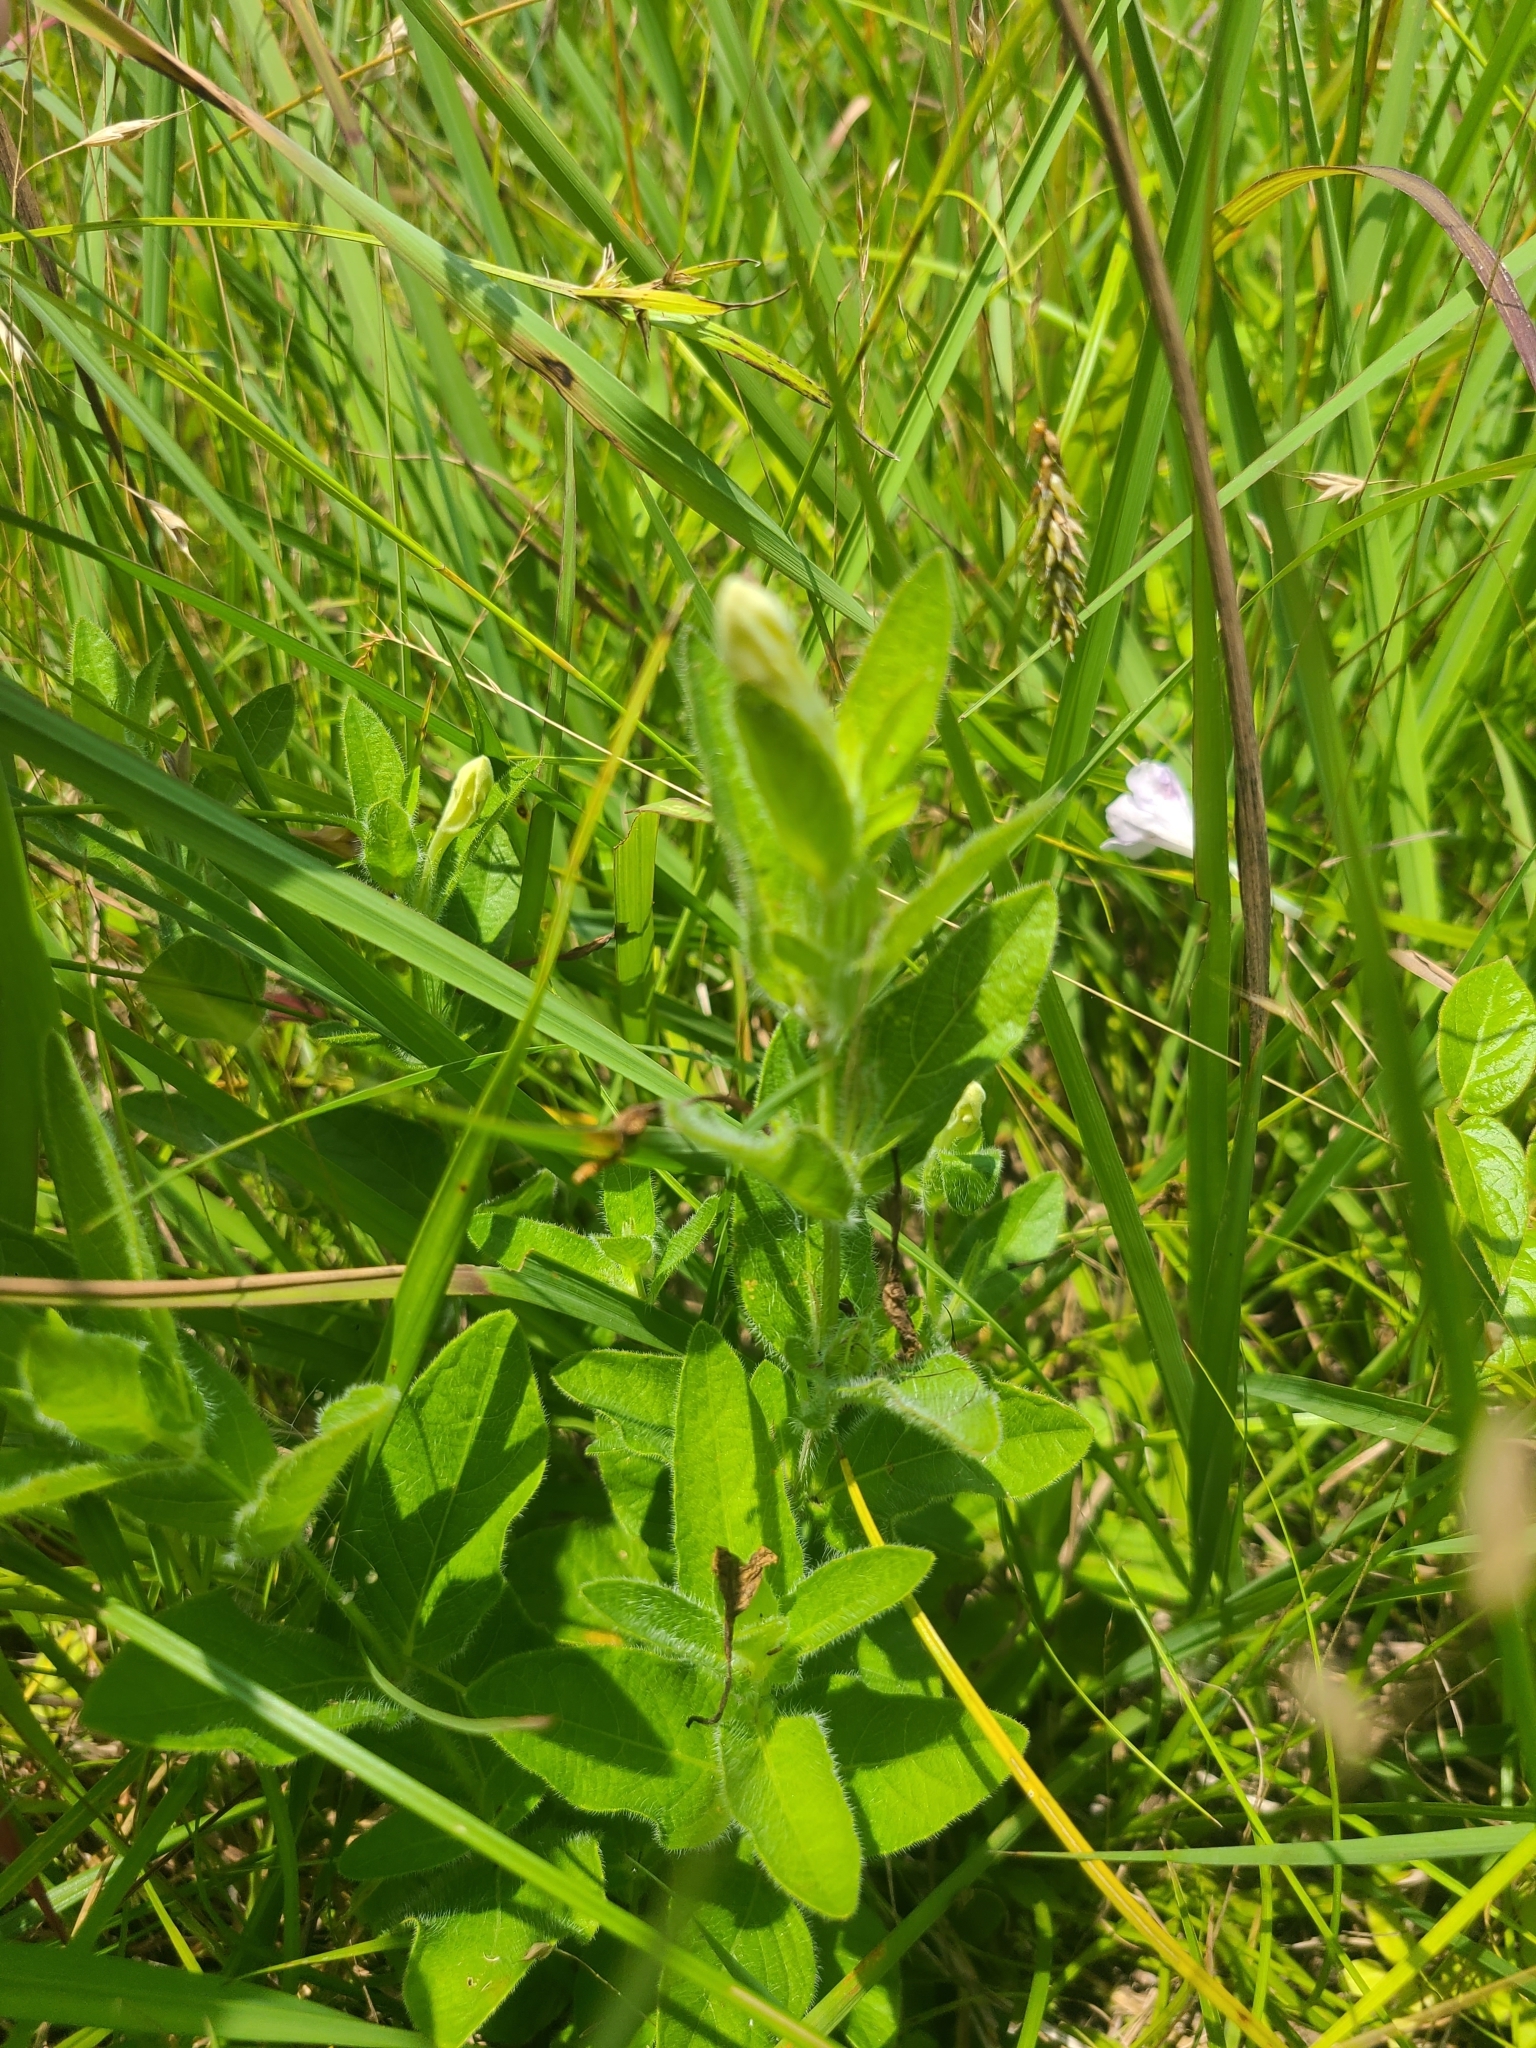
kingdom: Plantae
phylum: Tracheophyta
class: Magnoliopsida
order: Lamiales
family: Acanthaceae
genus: Ruellia
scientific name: Ruellia humilis
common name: Fringe-leaf ruellia
